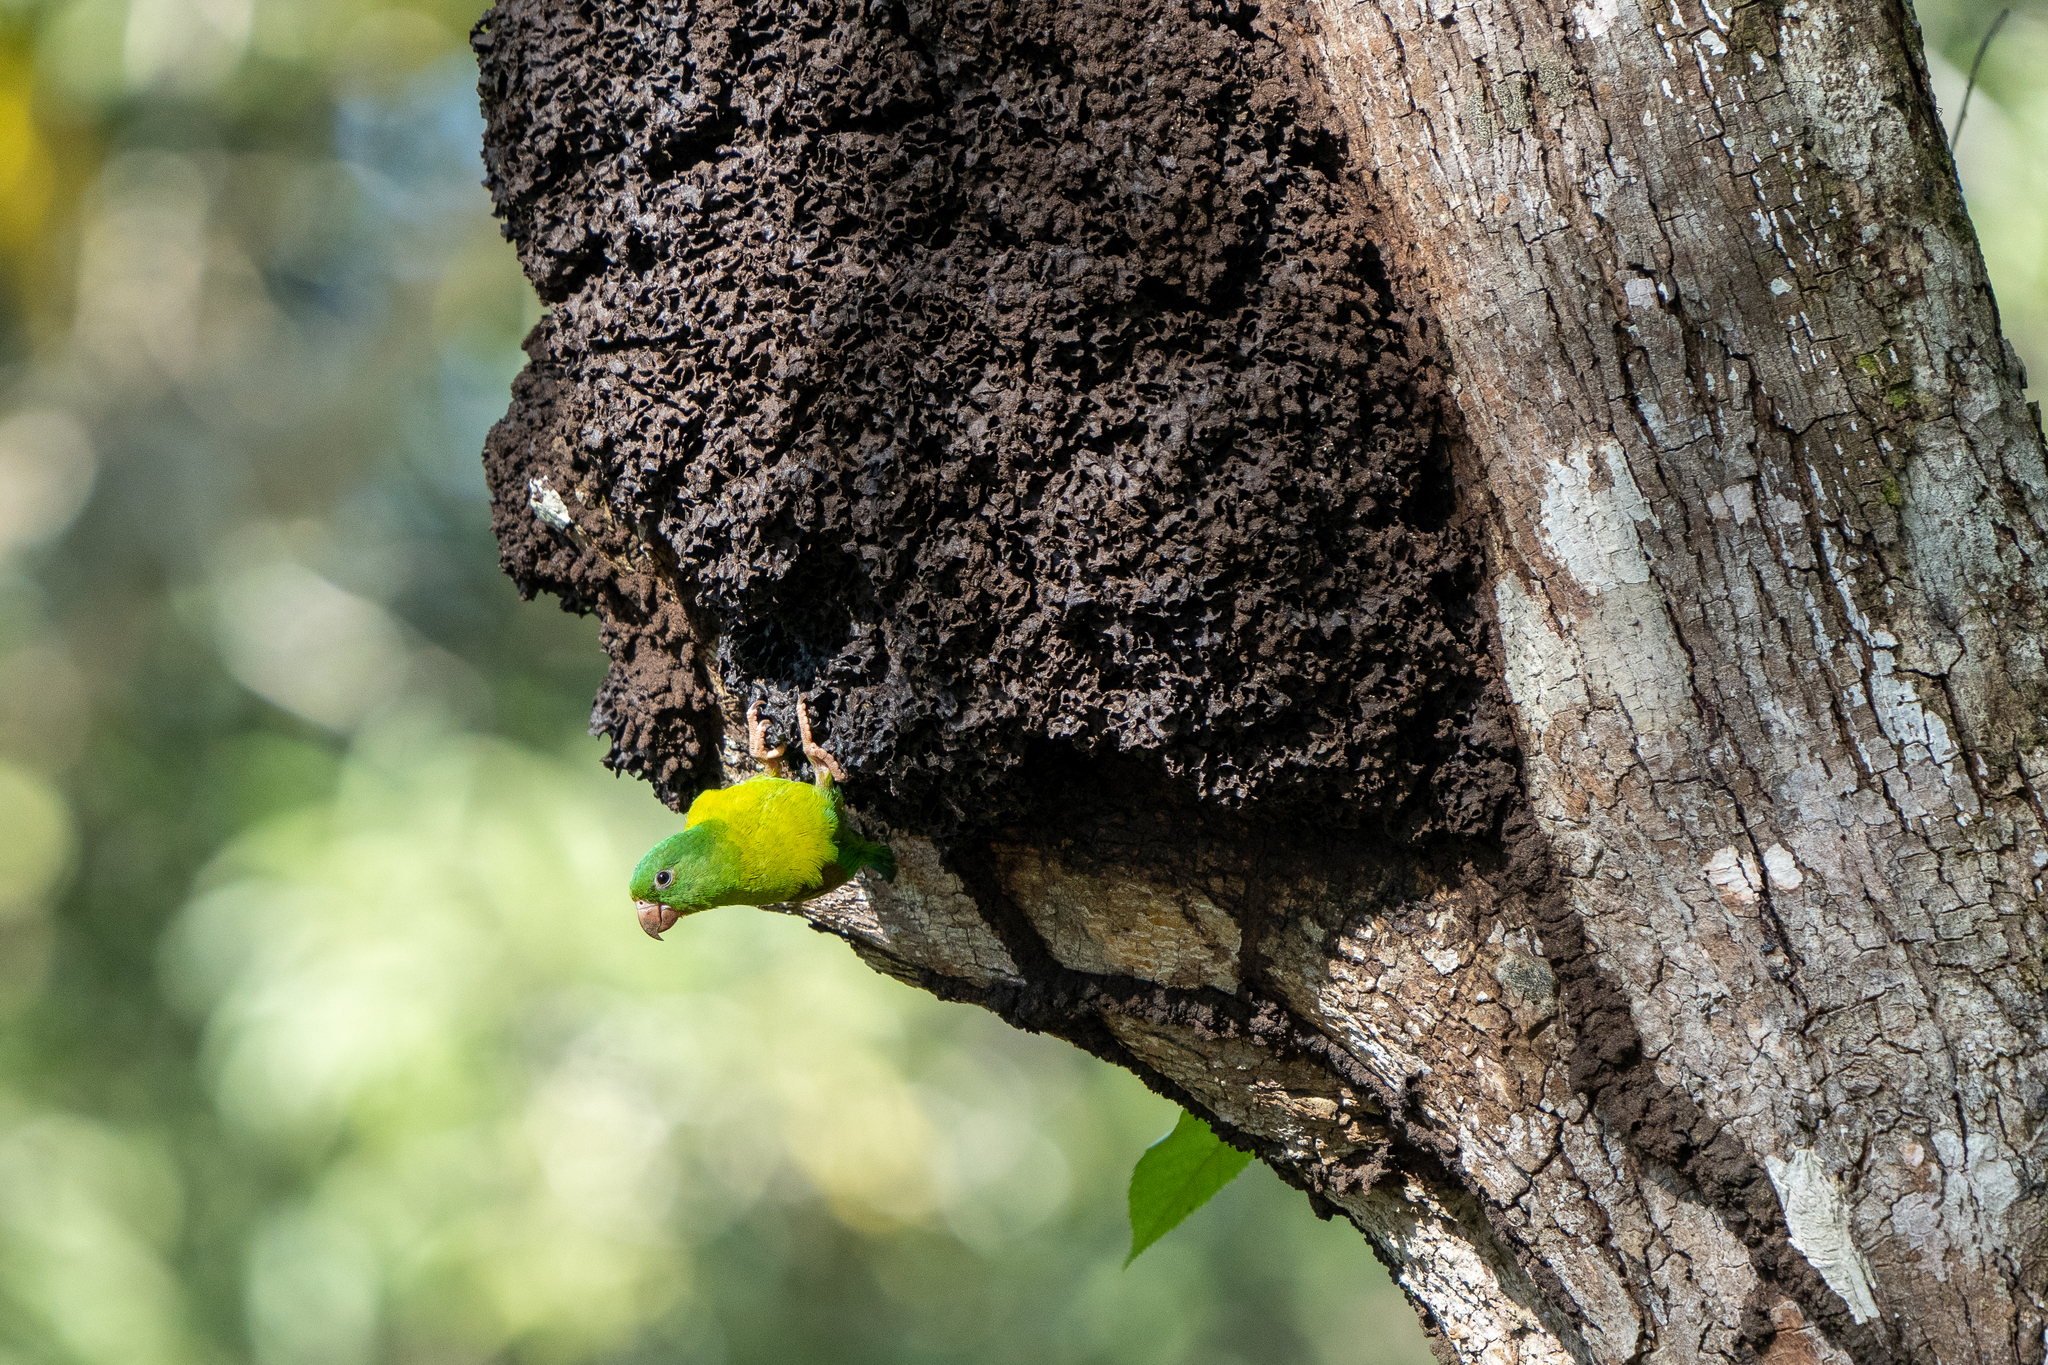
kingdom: Animalia
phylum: Chordata
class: Aves
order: Psittaciformes
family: Psittacidae
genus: Brotogeris
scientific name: Brotogeris jugularis
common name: Orange-chinned parakeet
